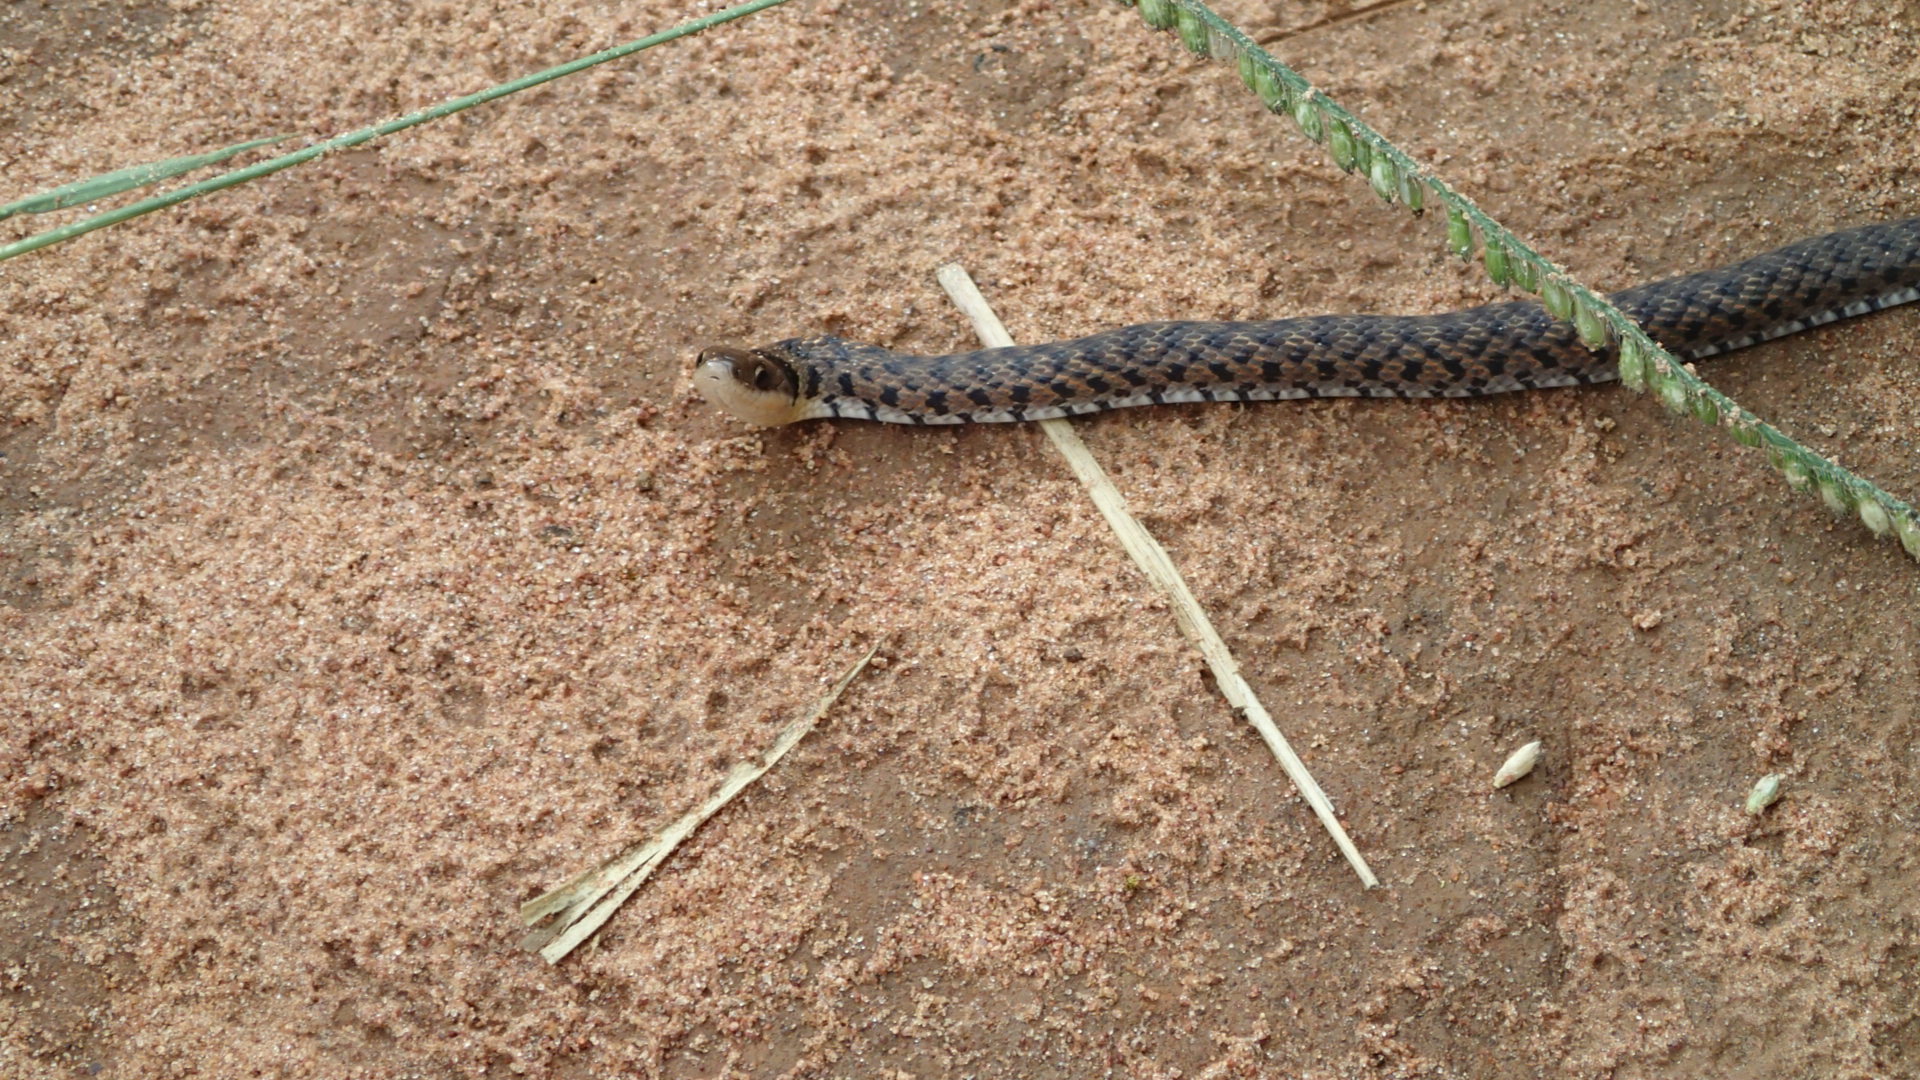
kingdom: Animalia
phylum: Chordata
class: Squamata
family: Colubridae
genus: Erythrolamprus
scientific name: Erythrolamprus poecilogyrus
